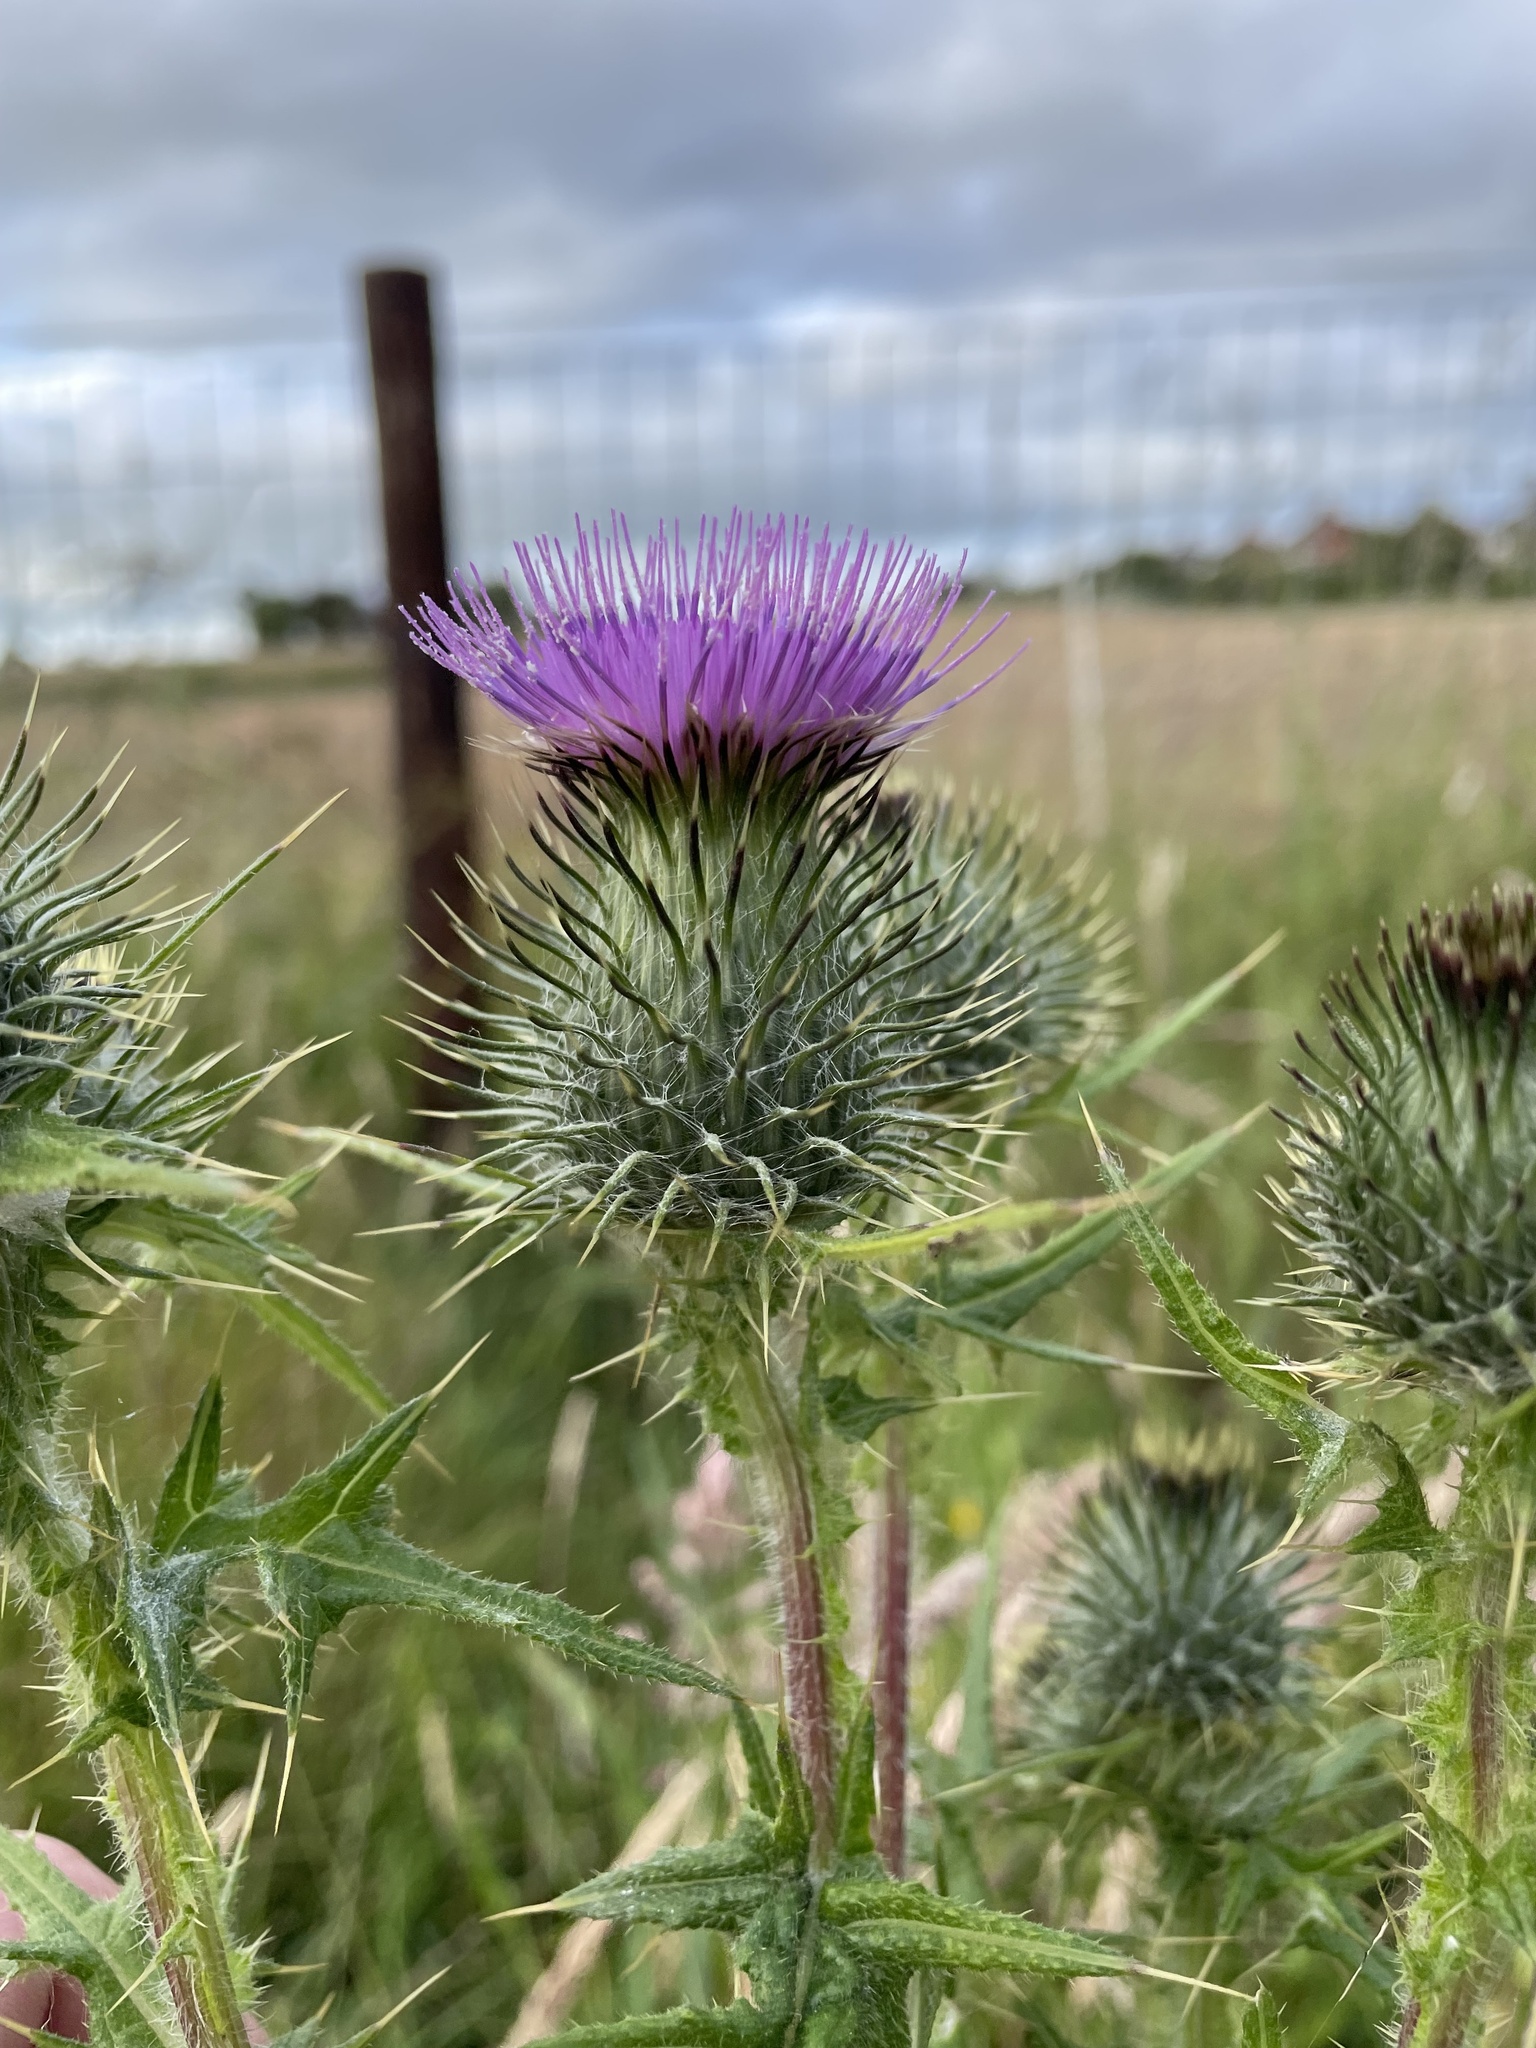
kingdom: Plantae
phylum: Tracheophyta
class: Magnoliopsida
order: Asterales
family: Asteraceae
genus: Cirsium
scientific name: Cirsium vulgare
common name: Bull thistle
